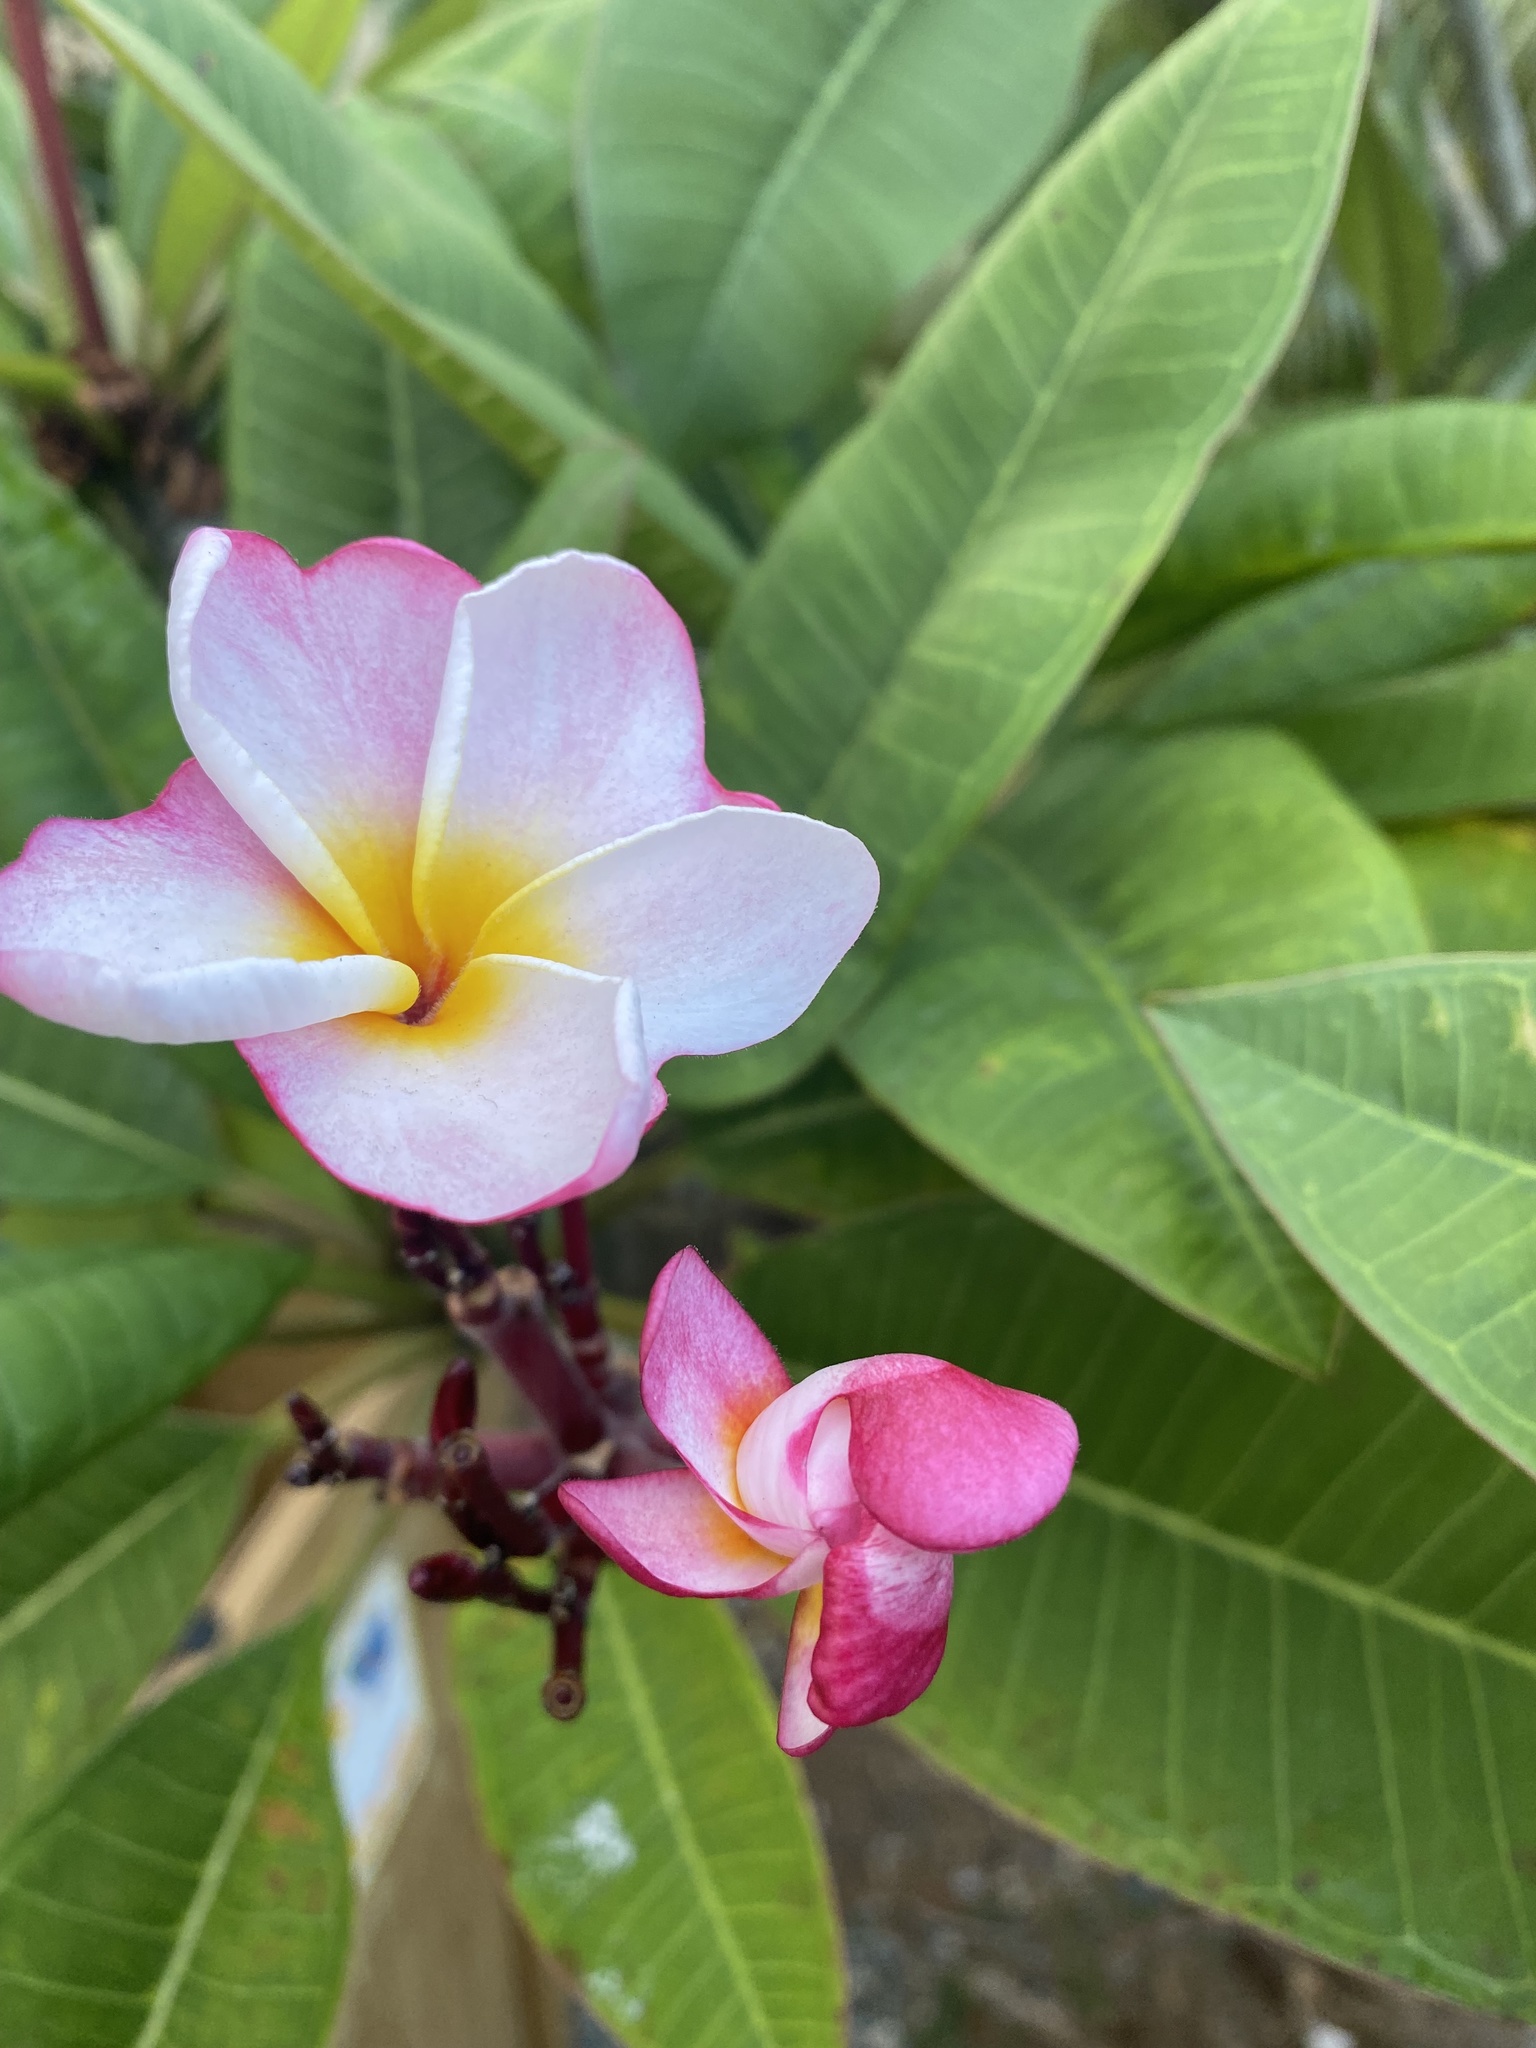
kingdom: Plantae
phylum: Tracheophyta
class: Magnoliopsida
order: Gentianales
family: Apocynaceae
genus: Plumeria
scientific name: Plumeria rubra
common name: Pagoda-tree
